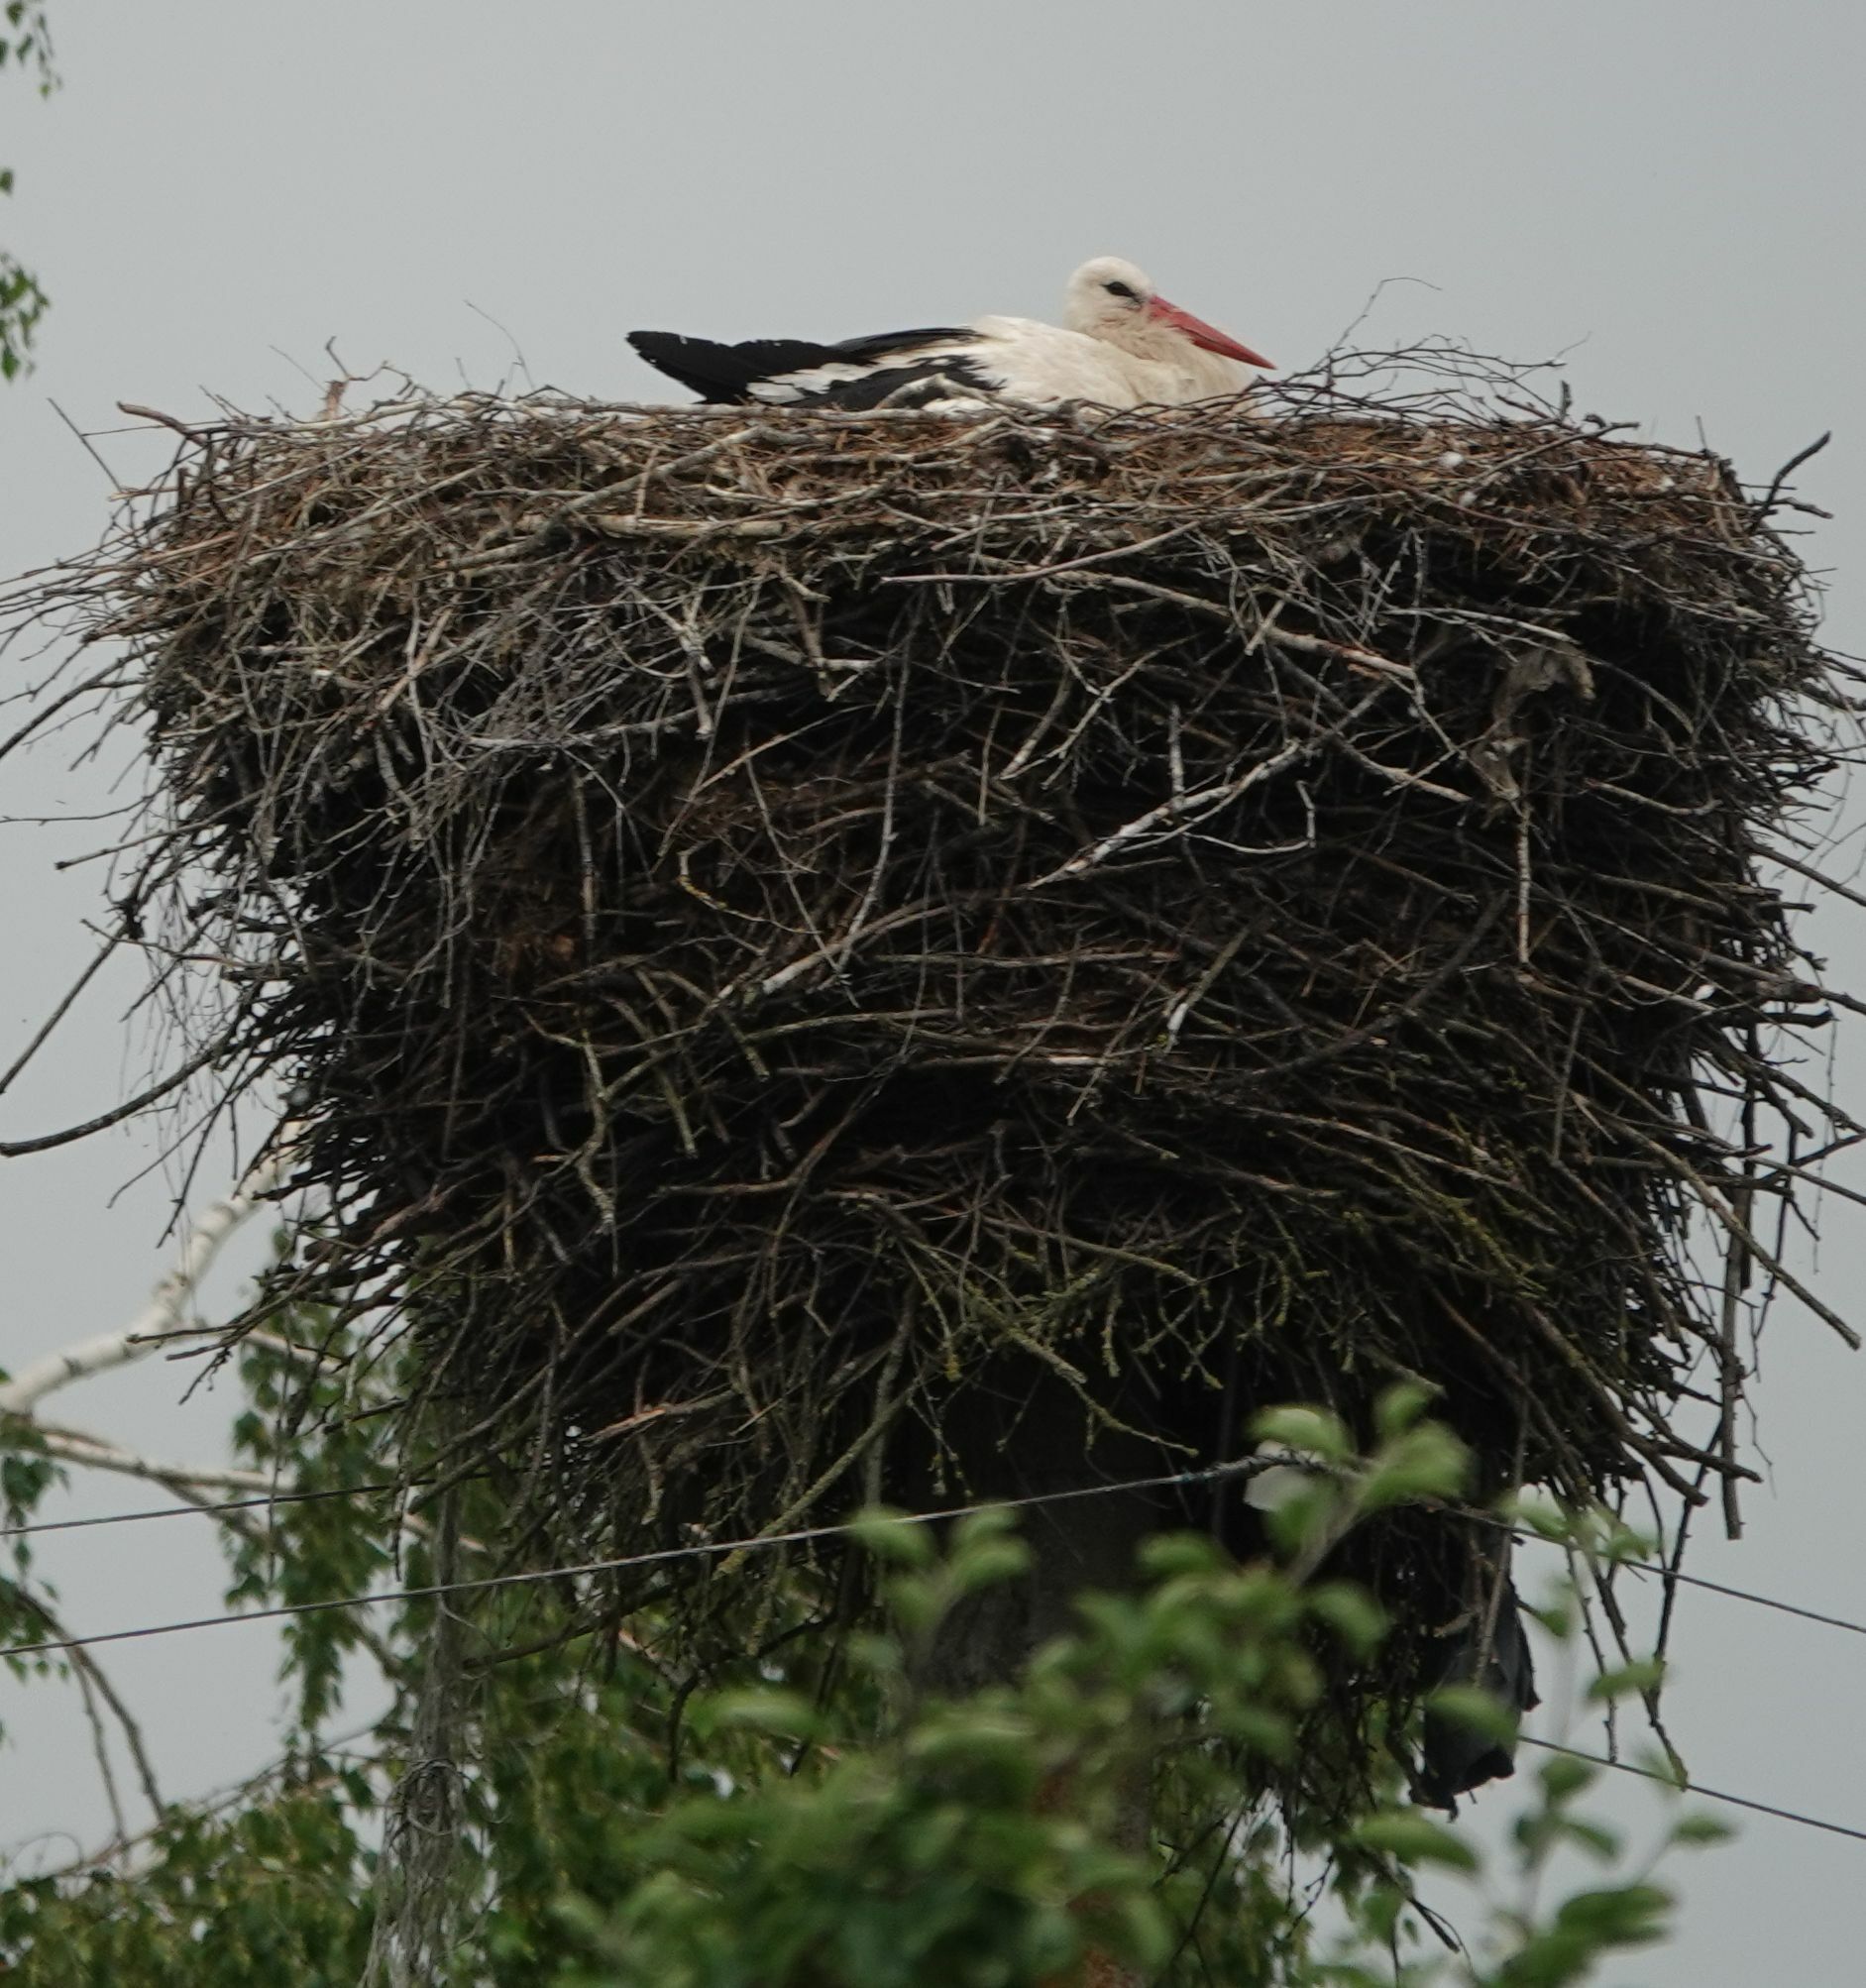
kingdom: Animalia
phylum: Chordata
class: Aves
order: Ciconiiformes
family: Ciconiidae
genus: Ciconia
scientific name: Ciconia ciconia
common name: White stork
